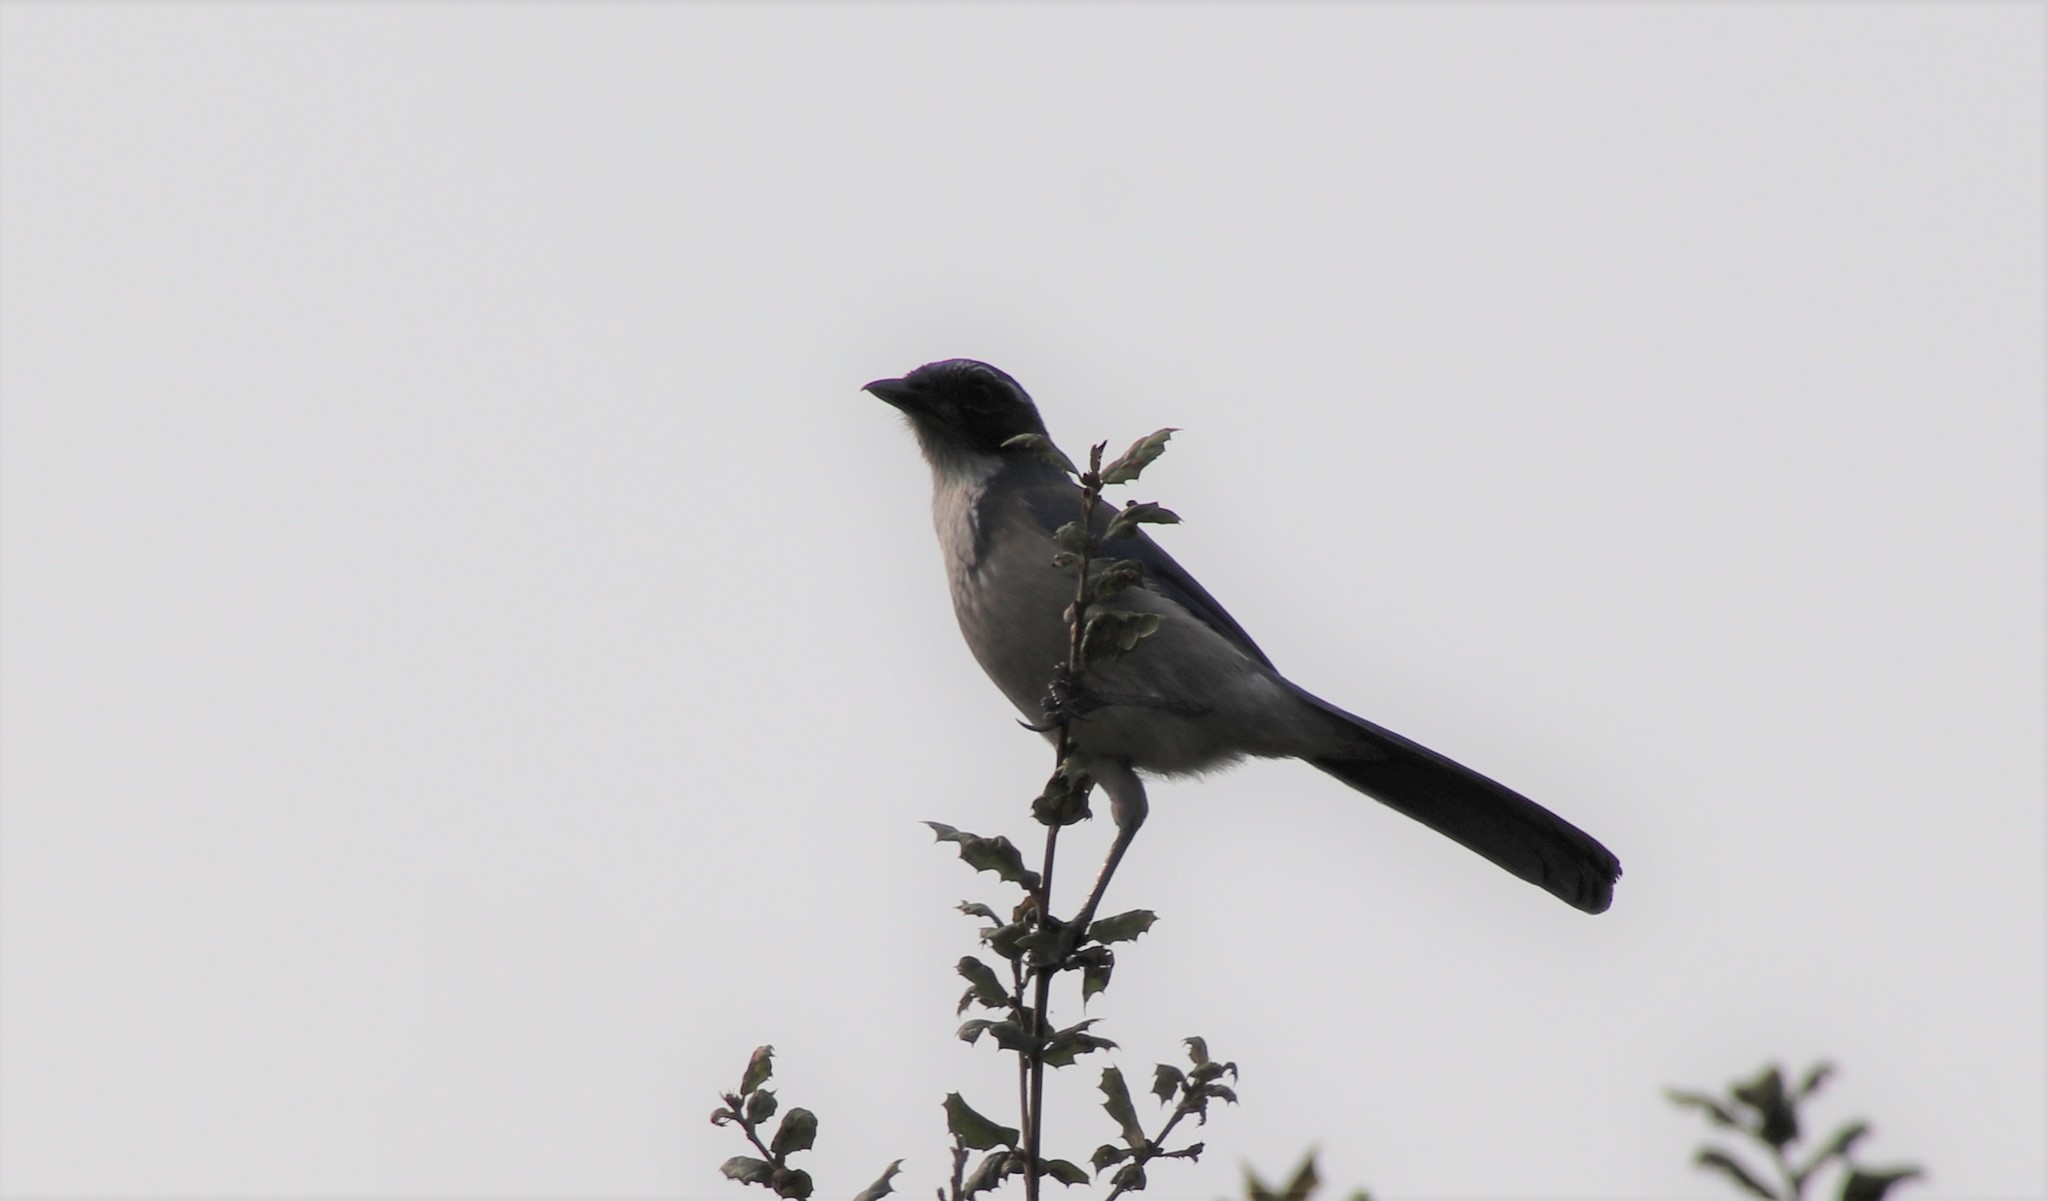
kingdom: Animalia
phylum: Chordata
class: Aves
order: Passeriformes
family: Corvidae
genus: Aphelocoma
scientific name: Aphelocoma californica
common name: California scrub-jay
